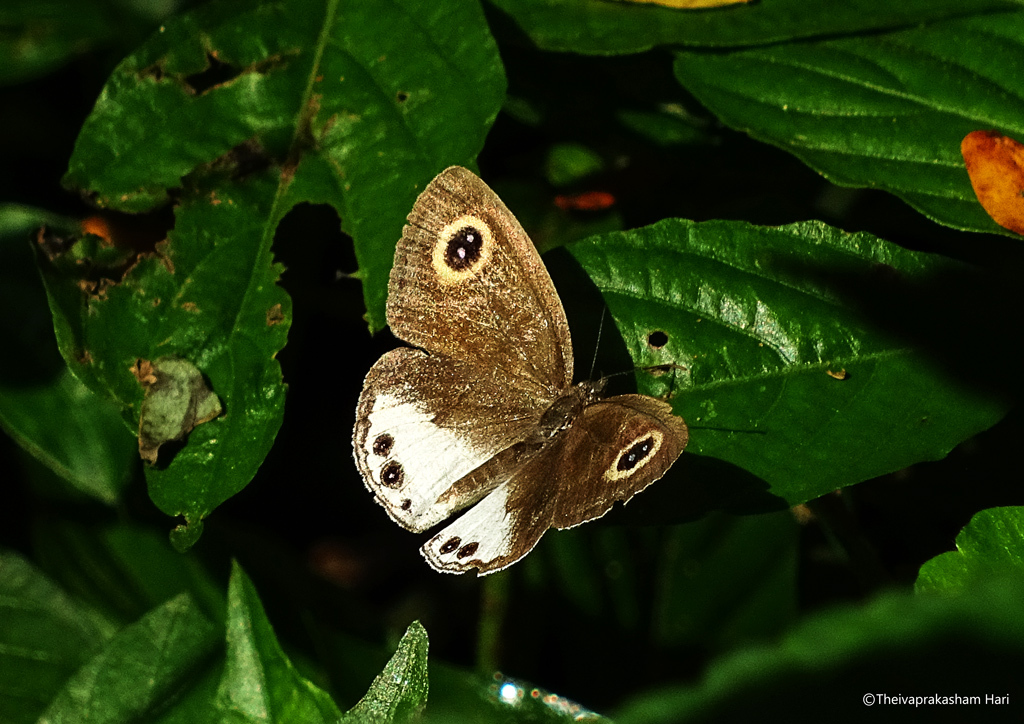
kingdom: Animalia
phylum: Arthropoda
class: Insecta
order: Lepidoptera
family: Nymphalidae
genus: Ypthima
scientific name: Ypthima ceylonica
